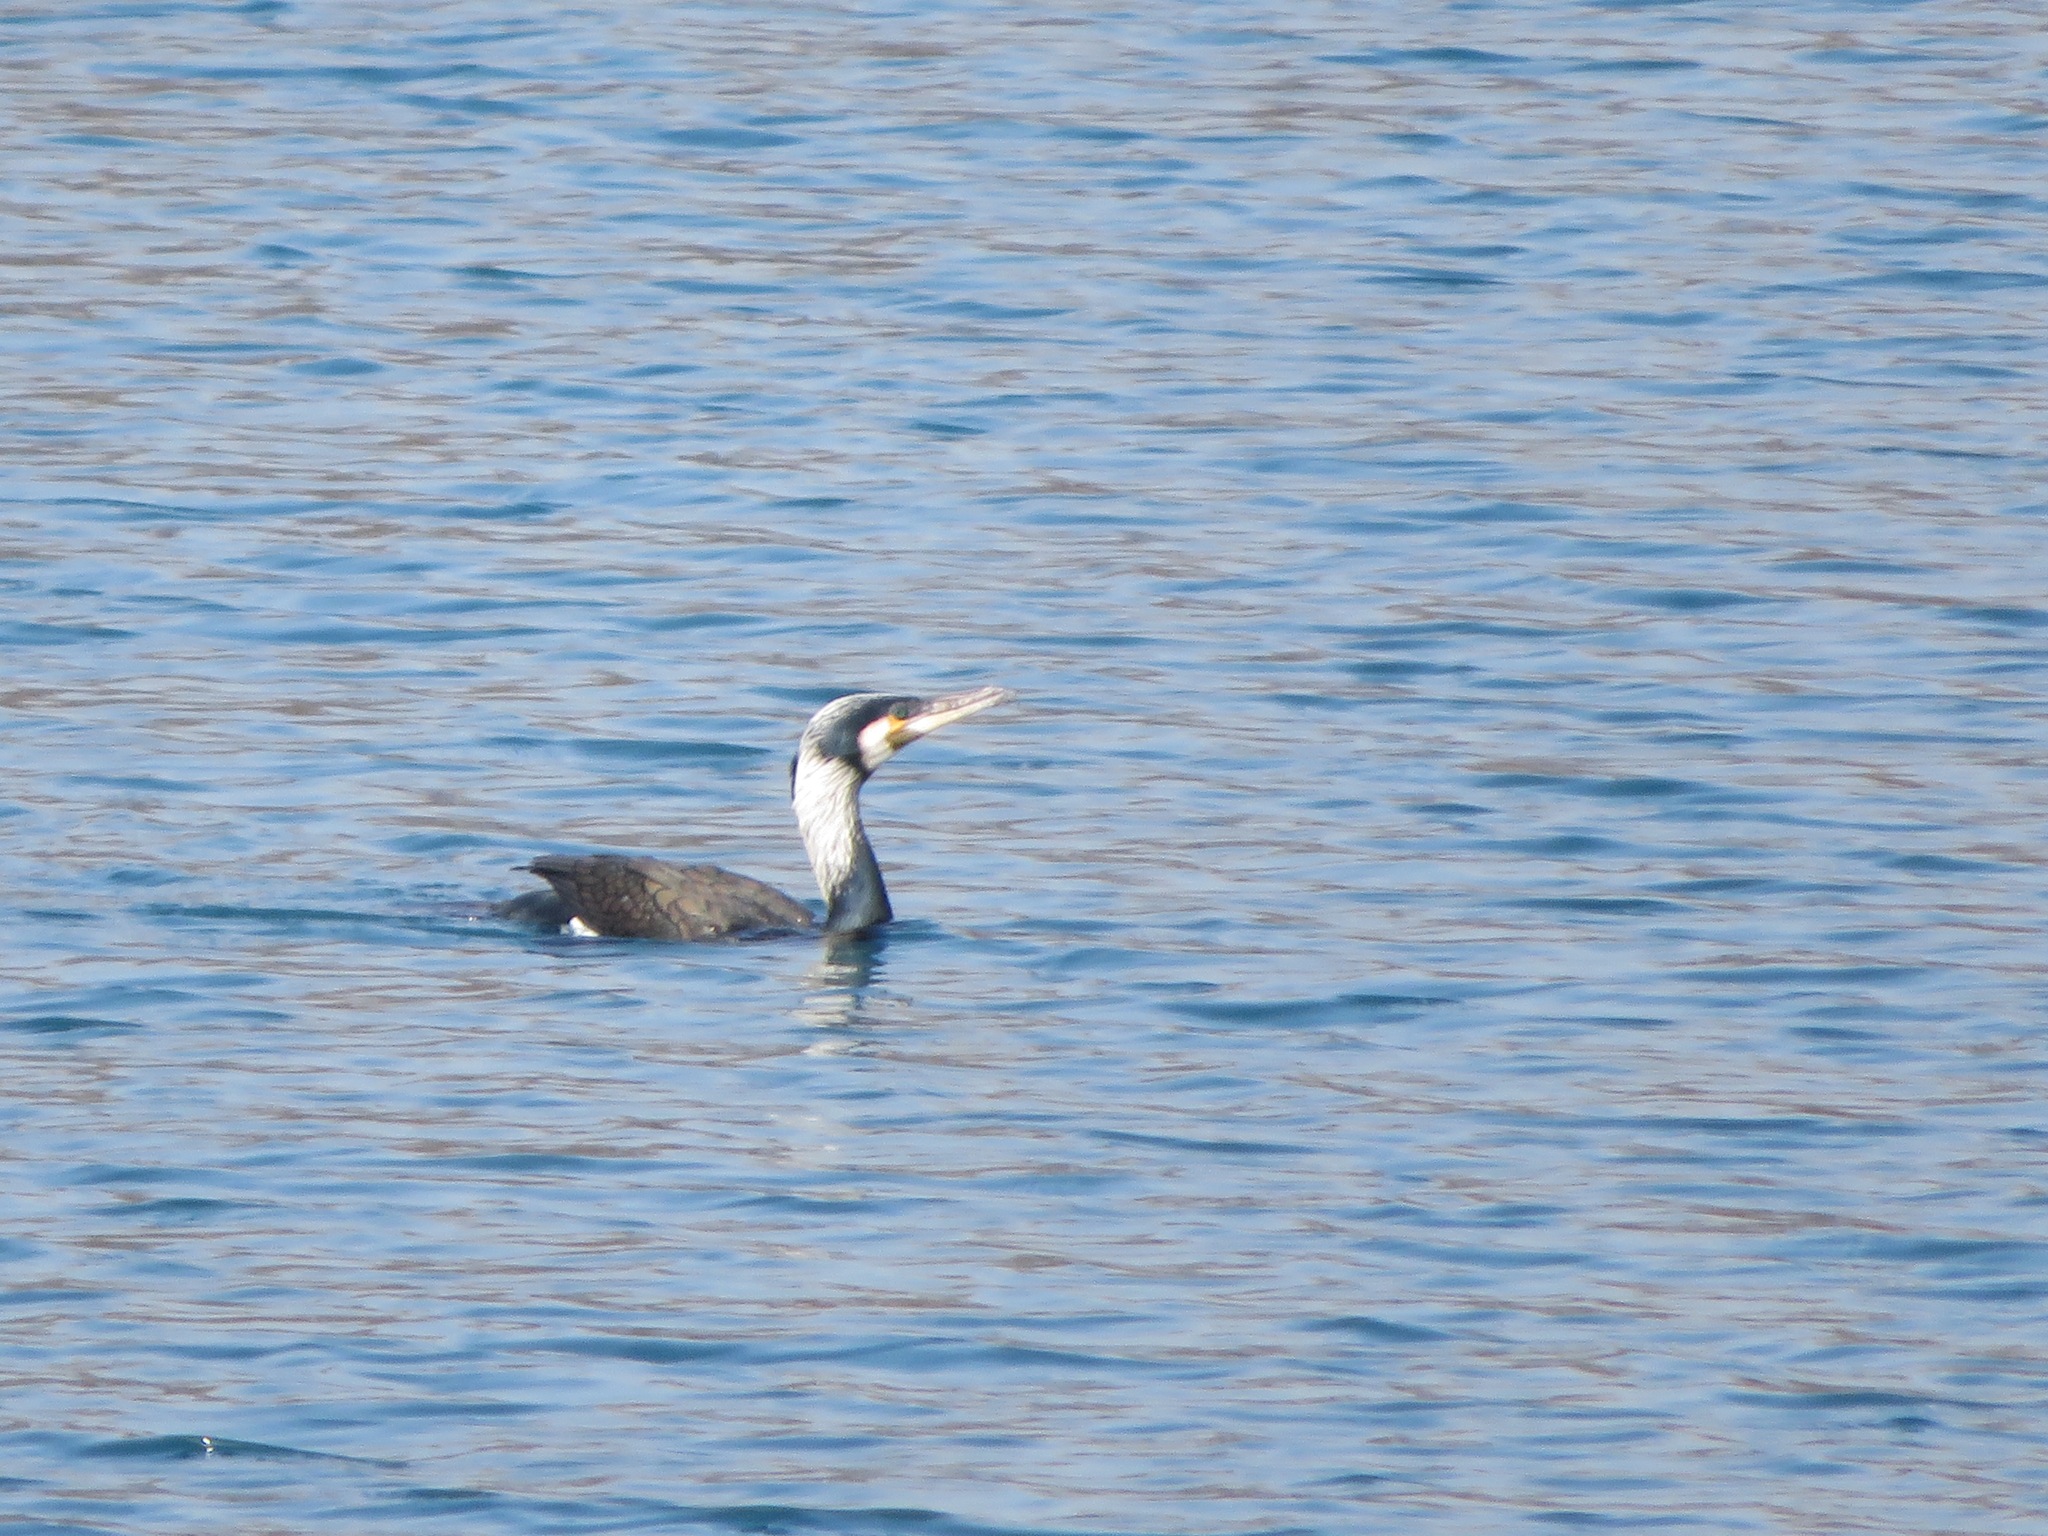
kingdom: Animalia
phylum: Chordata
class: Aves
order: Suliformes
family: Phalacrocoracidae
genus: Phalacrocorax
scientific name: Phalacrocorax carbo
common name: Great cormorant
